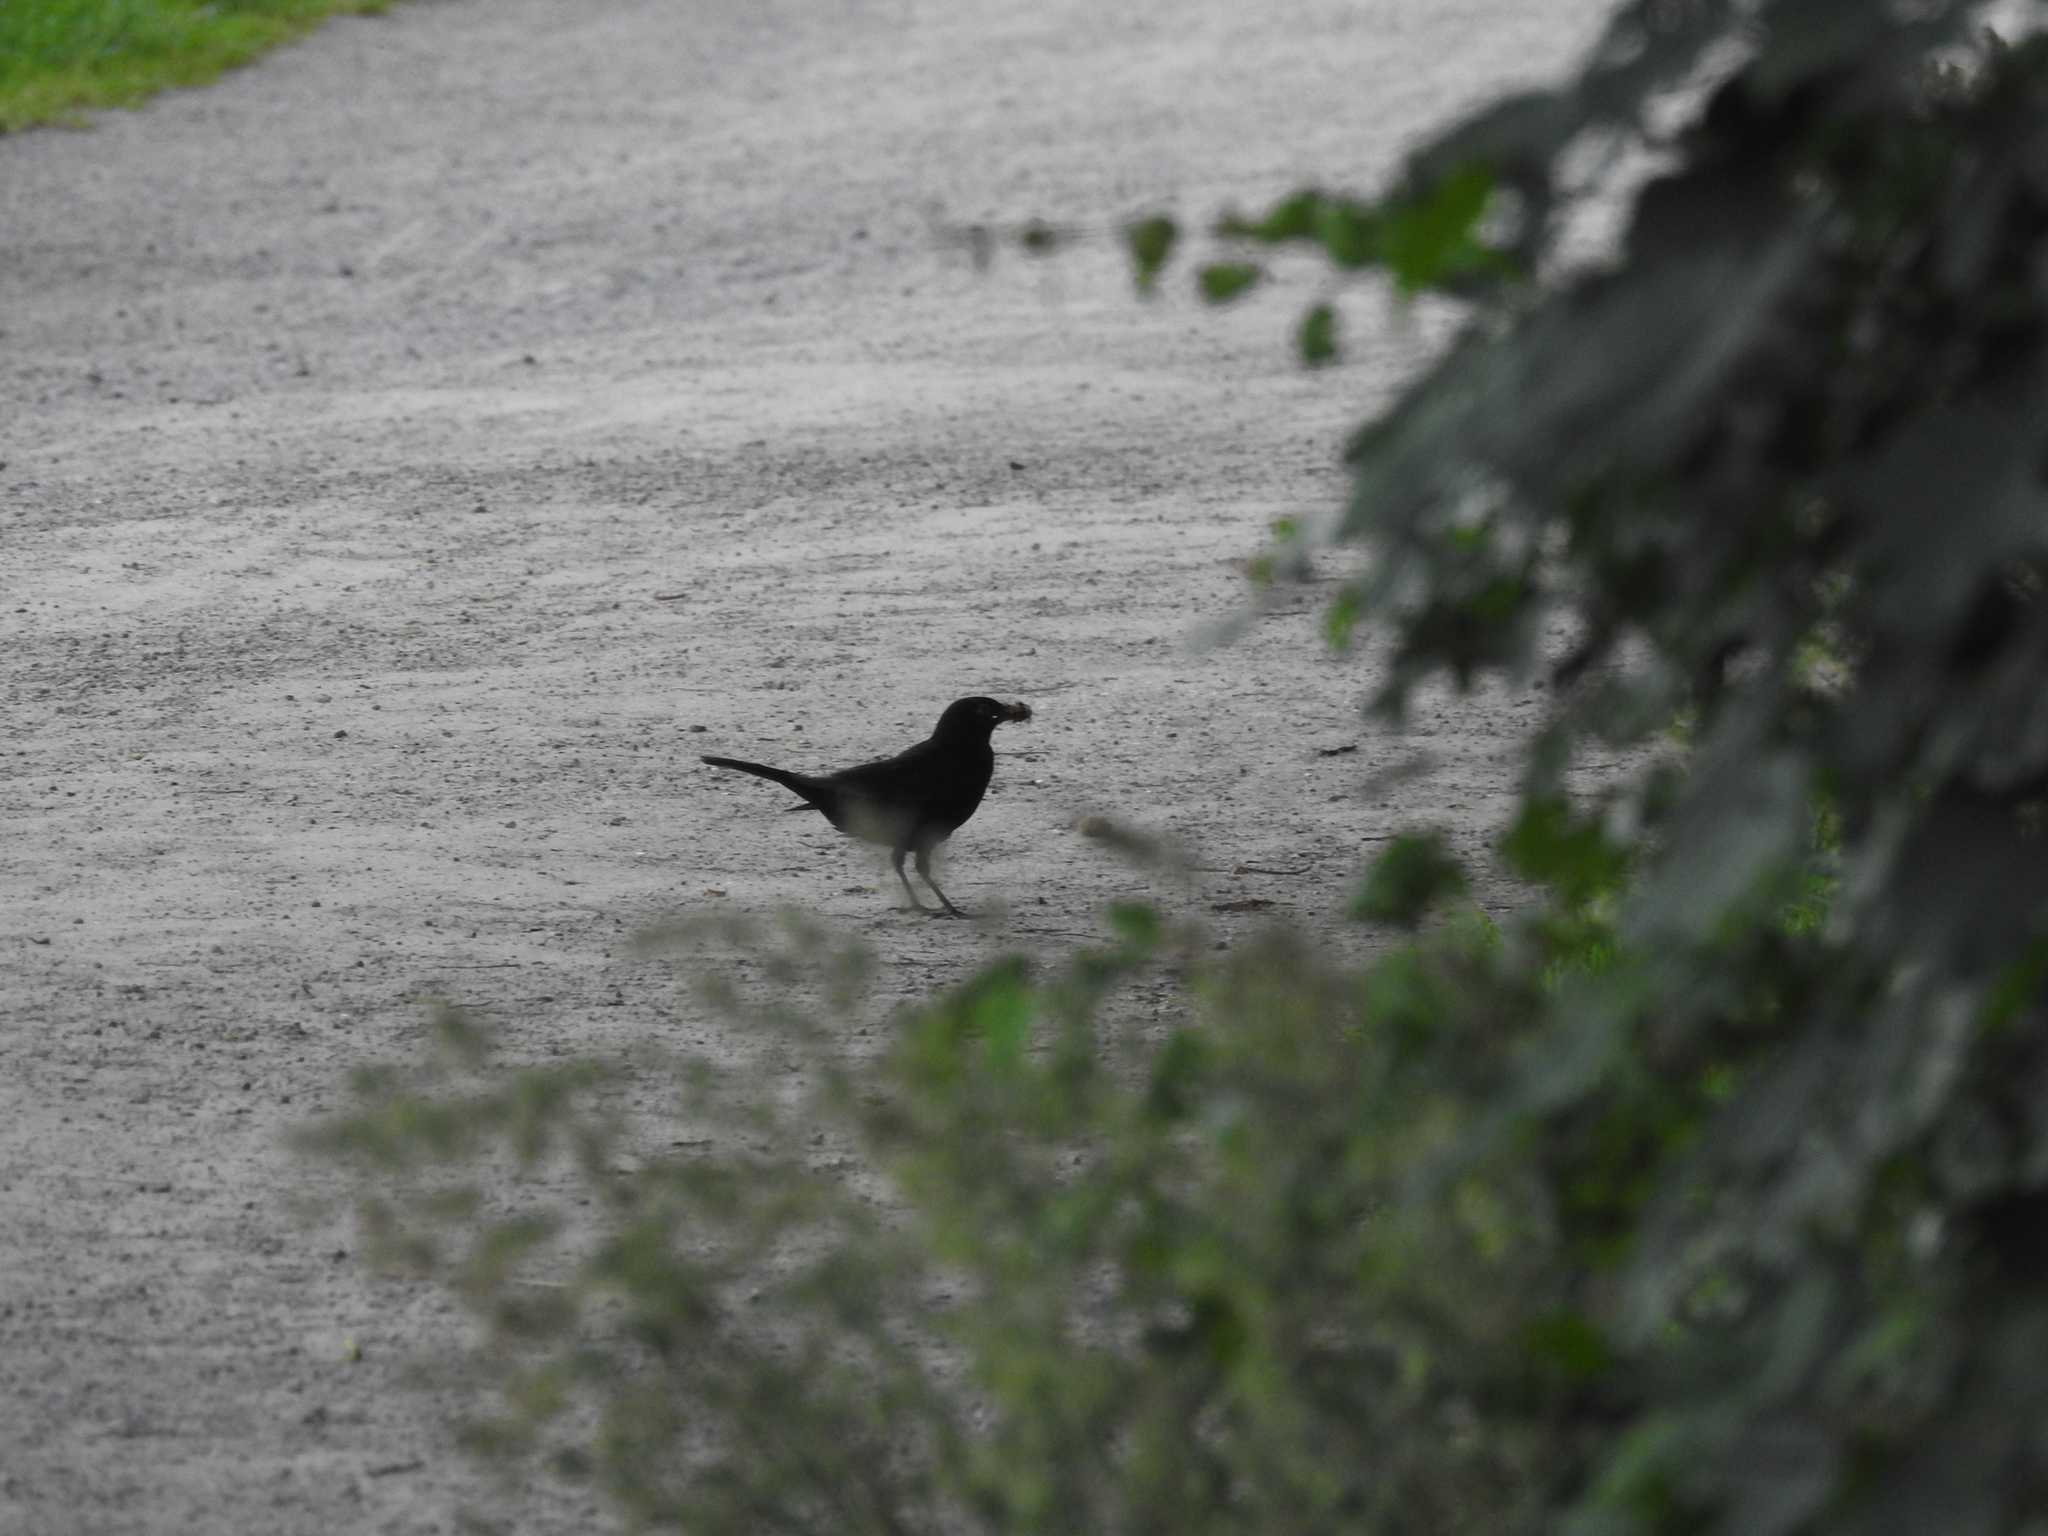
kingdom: Animalia
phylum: Chordata
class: Aves
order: Passeriformes
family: Turdidae
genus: Turdus
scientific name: Turdus merula
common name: Common blackbird
